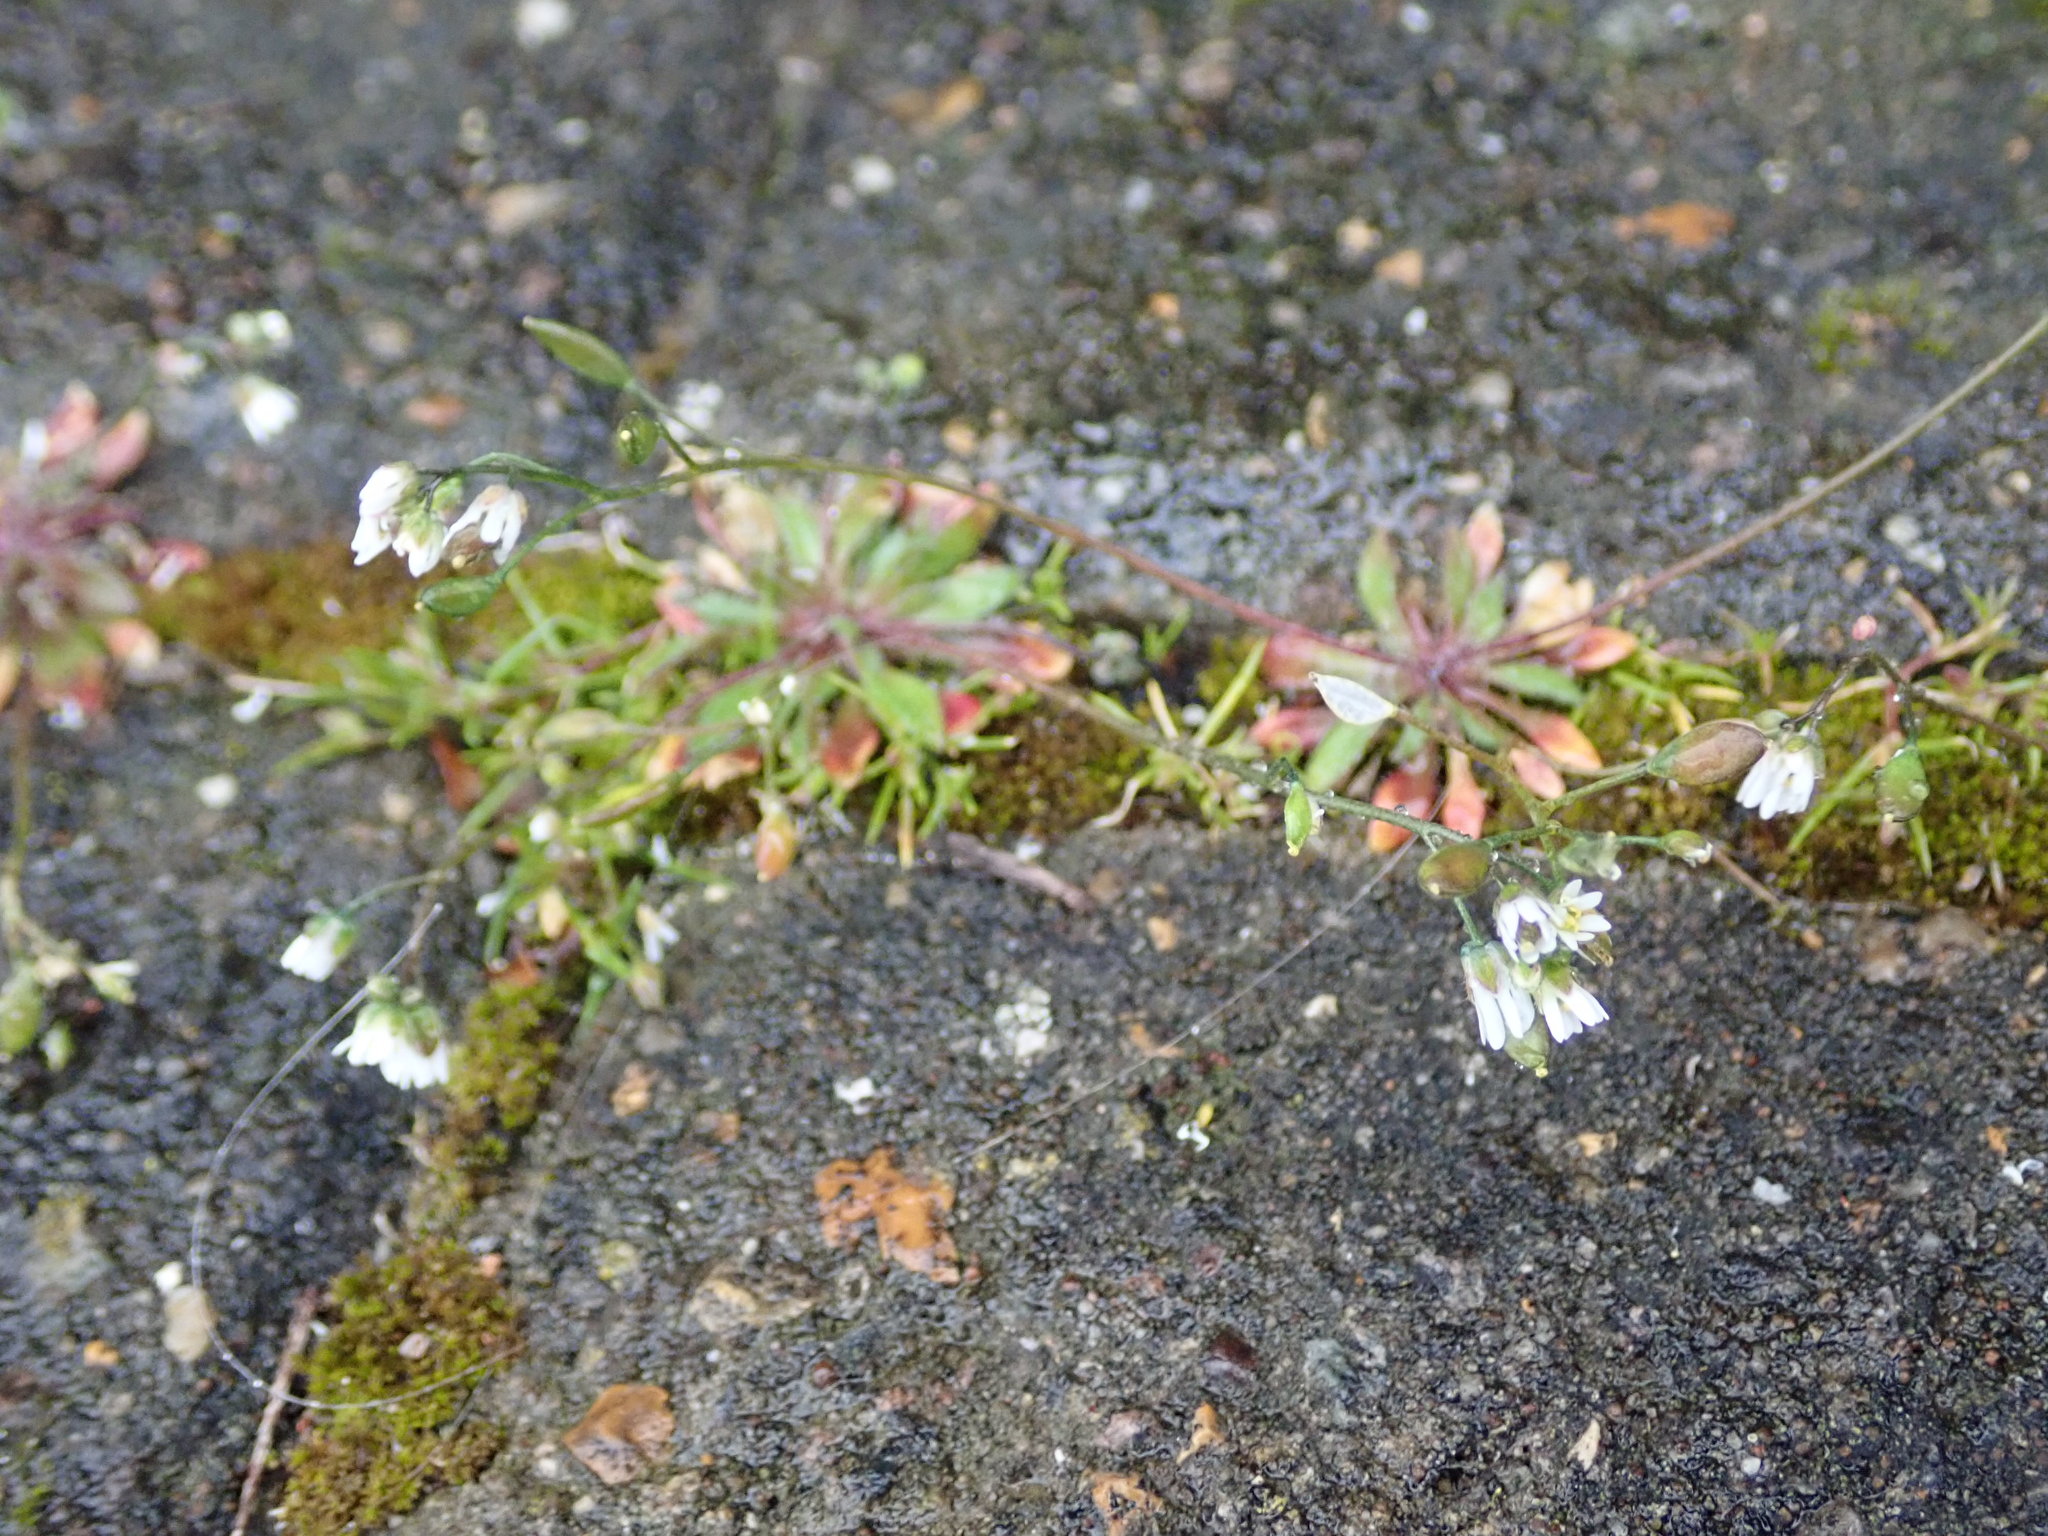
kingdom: Plantae
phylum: Tracheophyta
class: Magnoliopsida
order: Brassicales
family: Brassicaceae
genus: Draba
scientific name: Draba verna
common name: Spring draba
